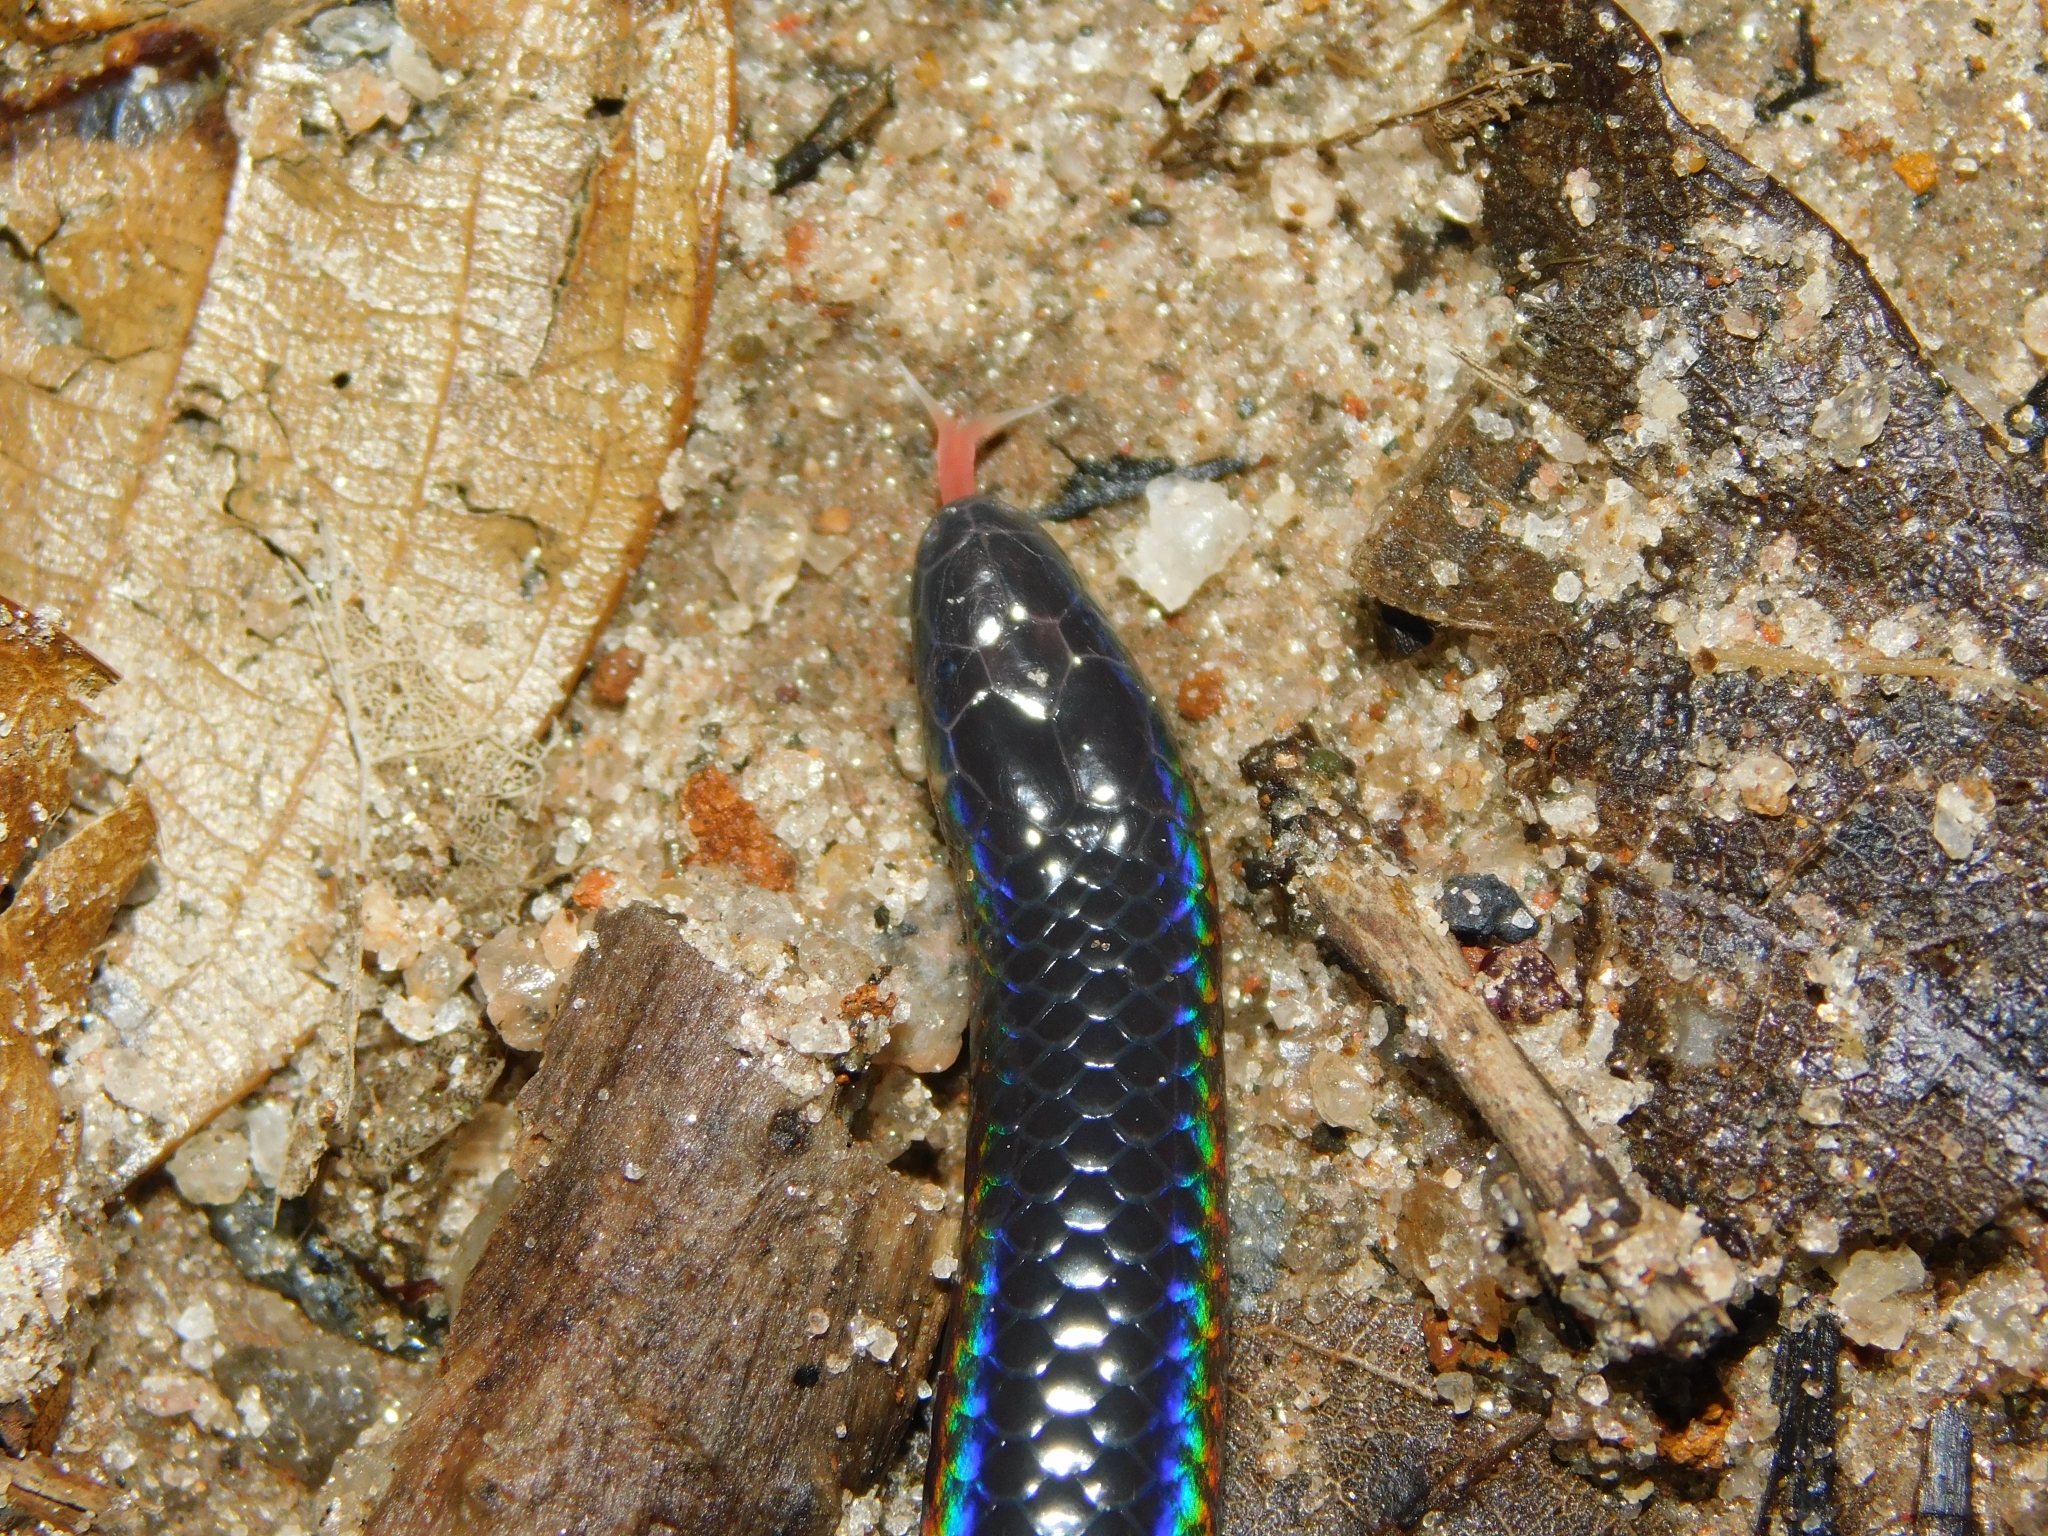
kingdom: Animalia
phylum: Chordata
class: Squamata
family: Uropeltidae
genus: Melanophidium
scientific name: Melanophidium wynaudense
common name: Indian black earth snake
